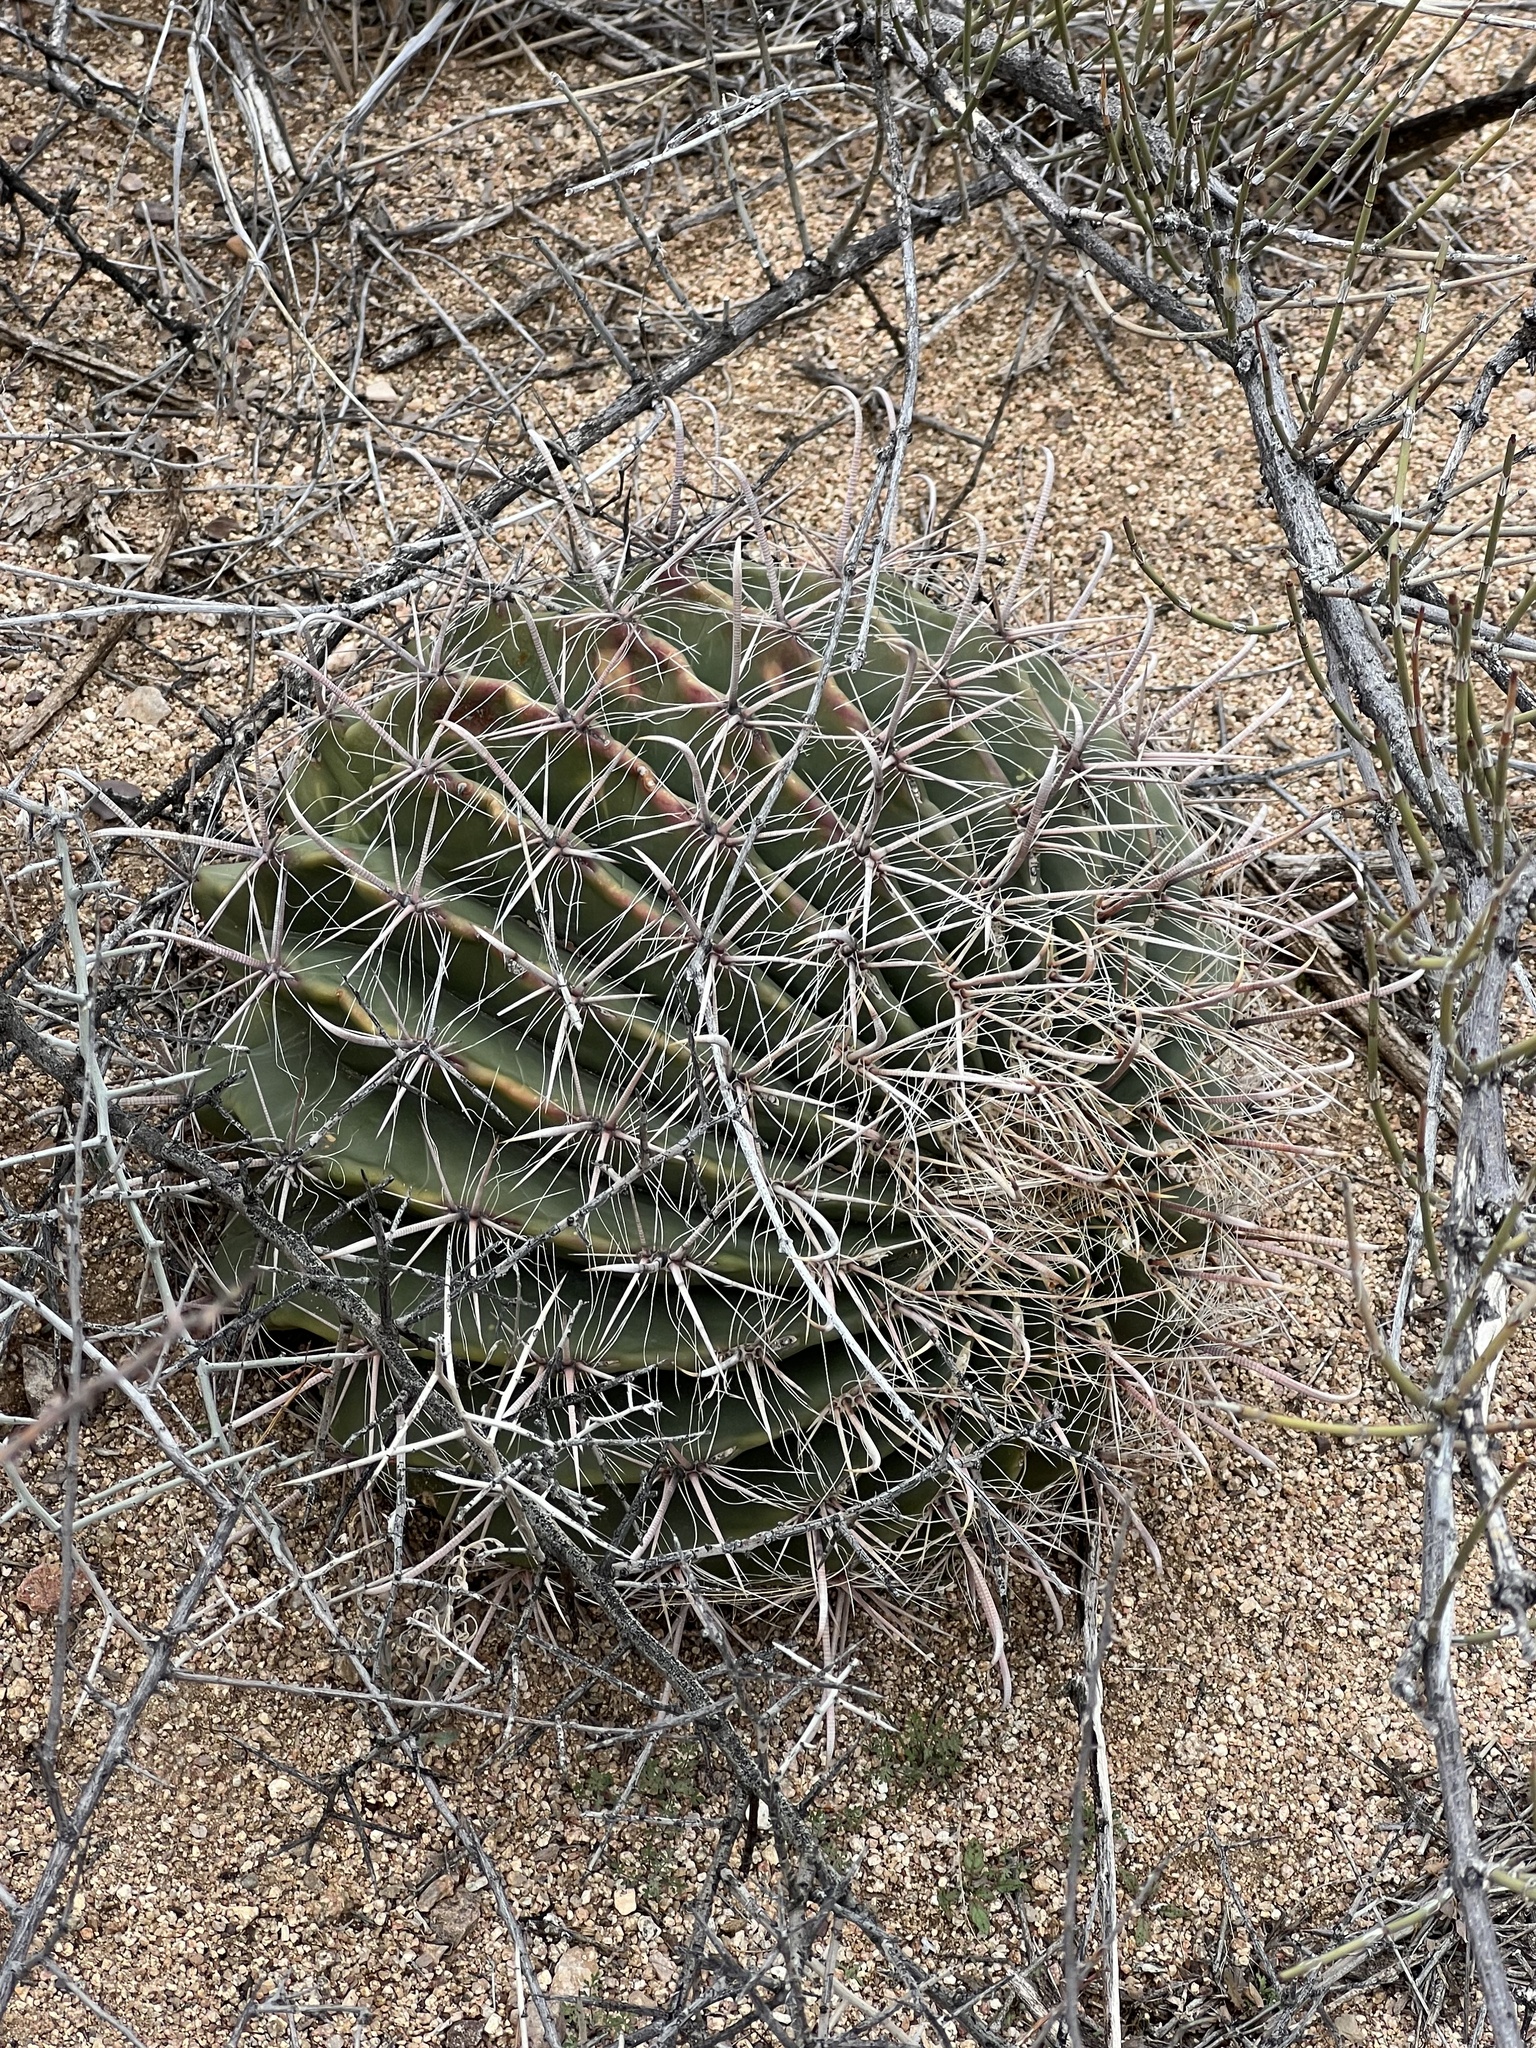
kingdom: Plantae
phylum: Tracheophyta
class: Magnoliopsida
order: Caryophyllales
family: Cactaceae
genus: Ferocactus
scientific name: Ferocactus wislizeni
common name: Candy barrel cactus
